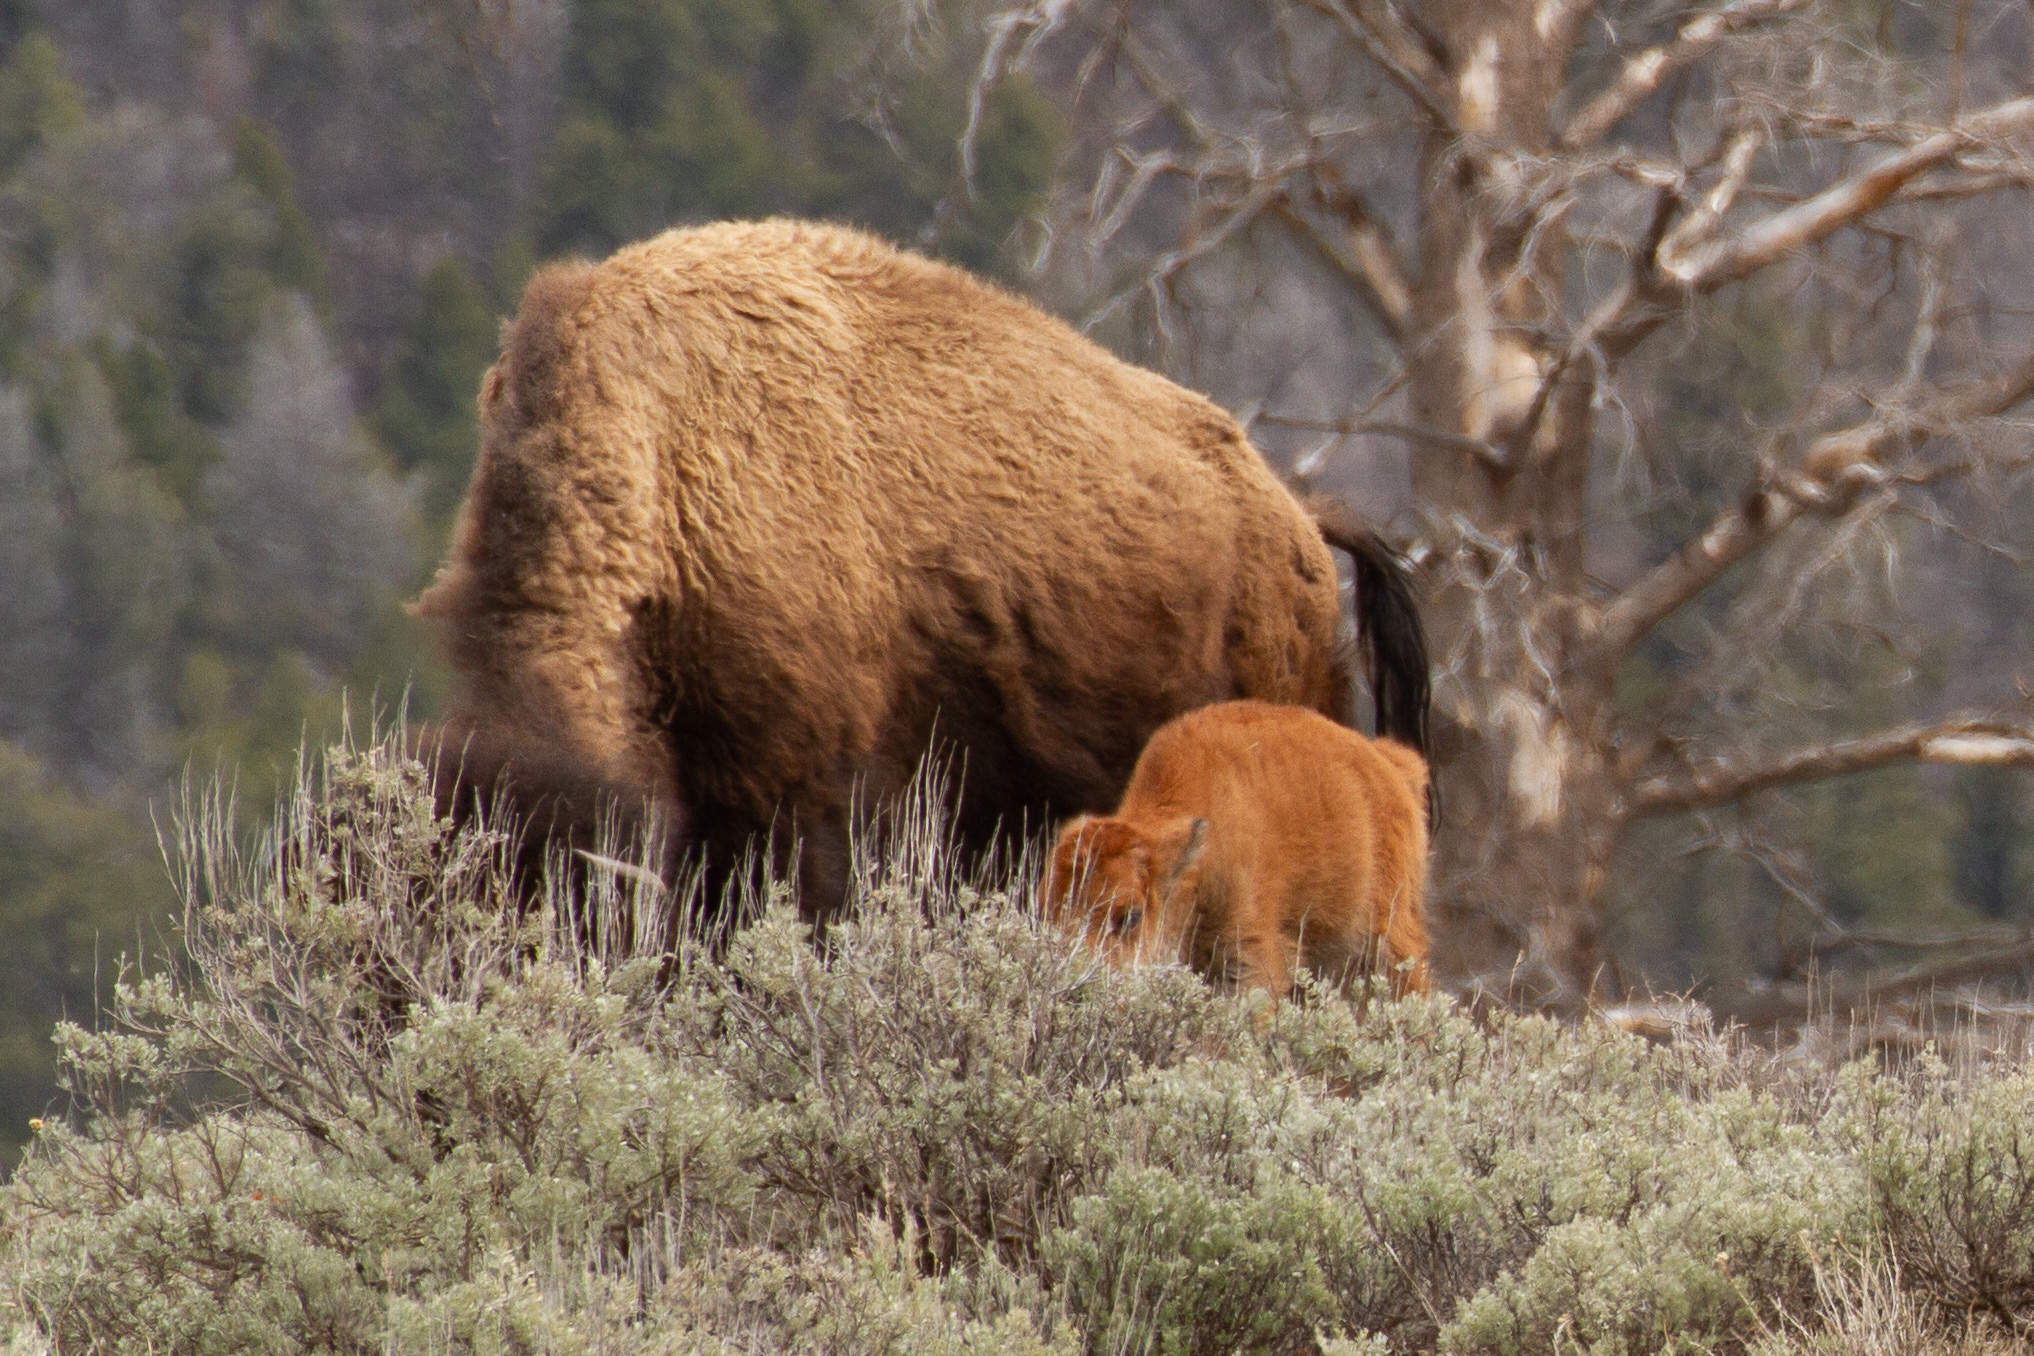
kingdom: Animalia
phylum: Chordata
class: Mammalia
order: Artiodactyla
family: Bovidae
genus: Bison
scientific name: Bison bison
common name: American bison
